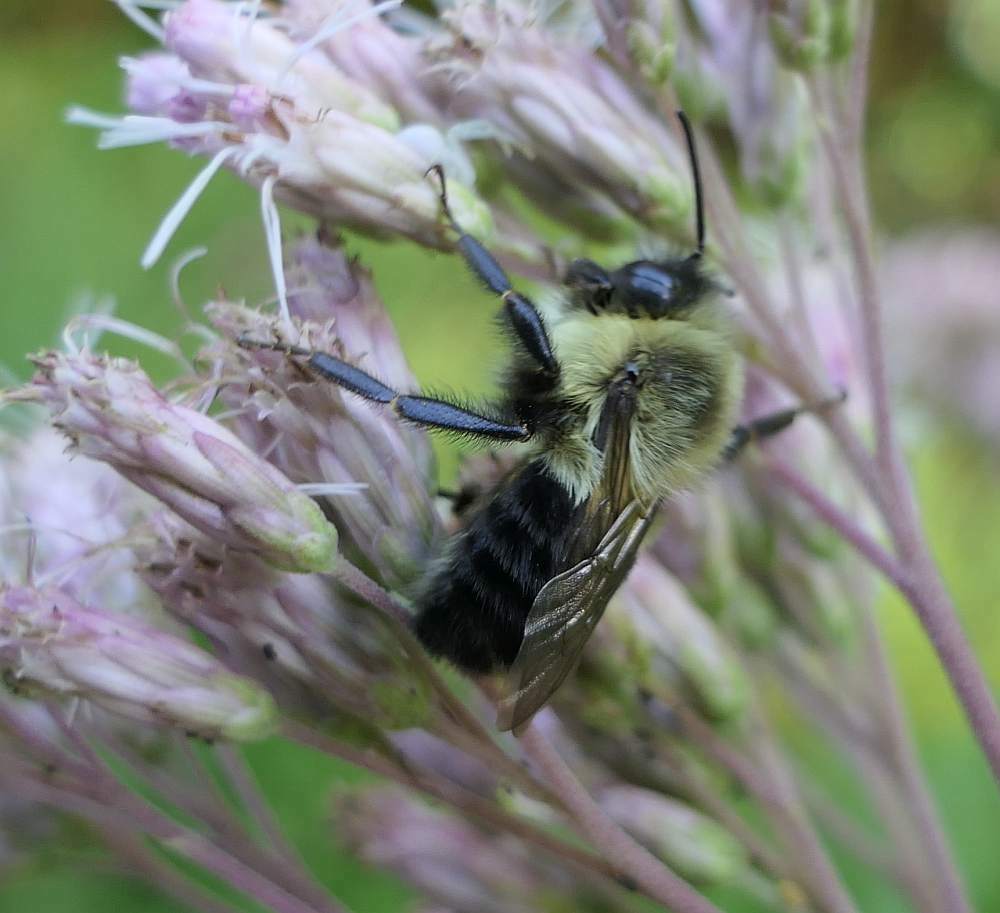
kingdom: Animalia
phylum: Arthropoda
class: Insecta
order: Hymenoptera
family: Apidae
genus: Bombus
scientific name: Bombus impatiens
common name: Common eastern bumble bee
